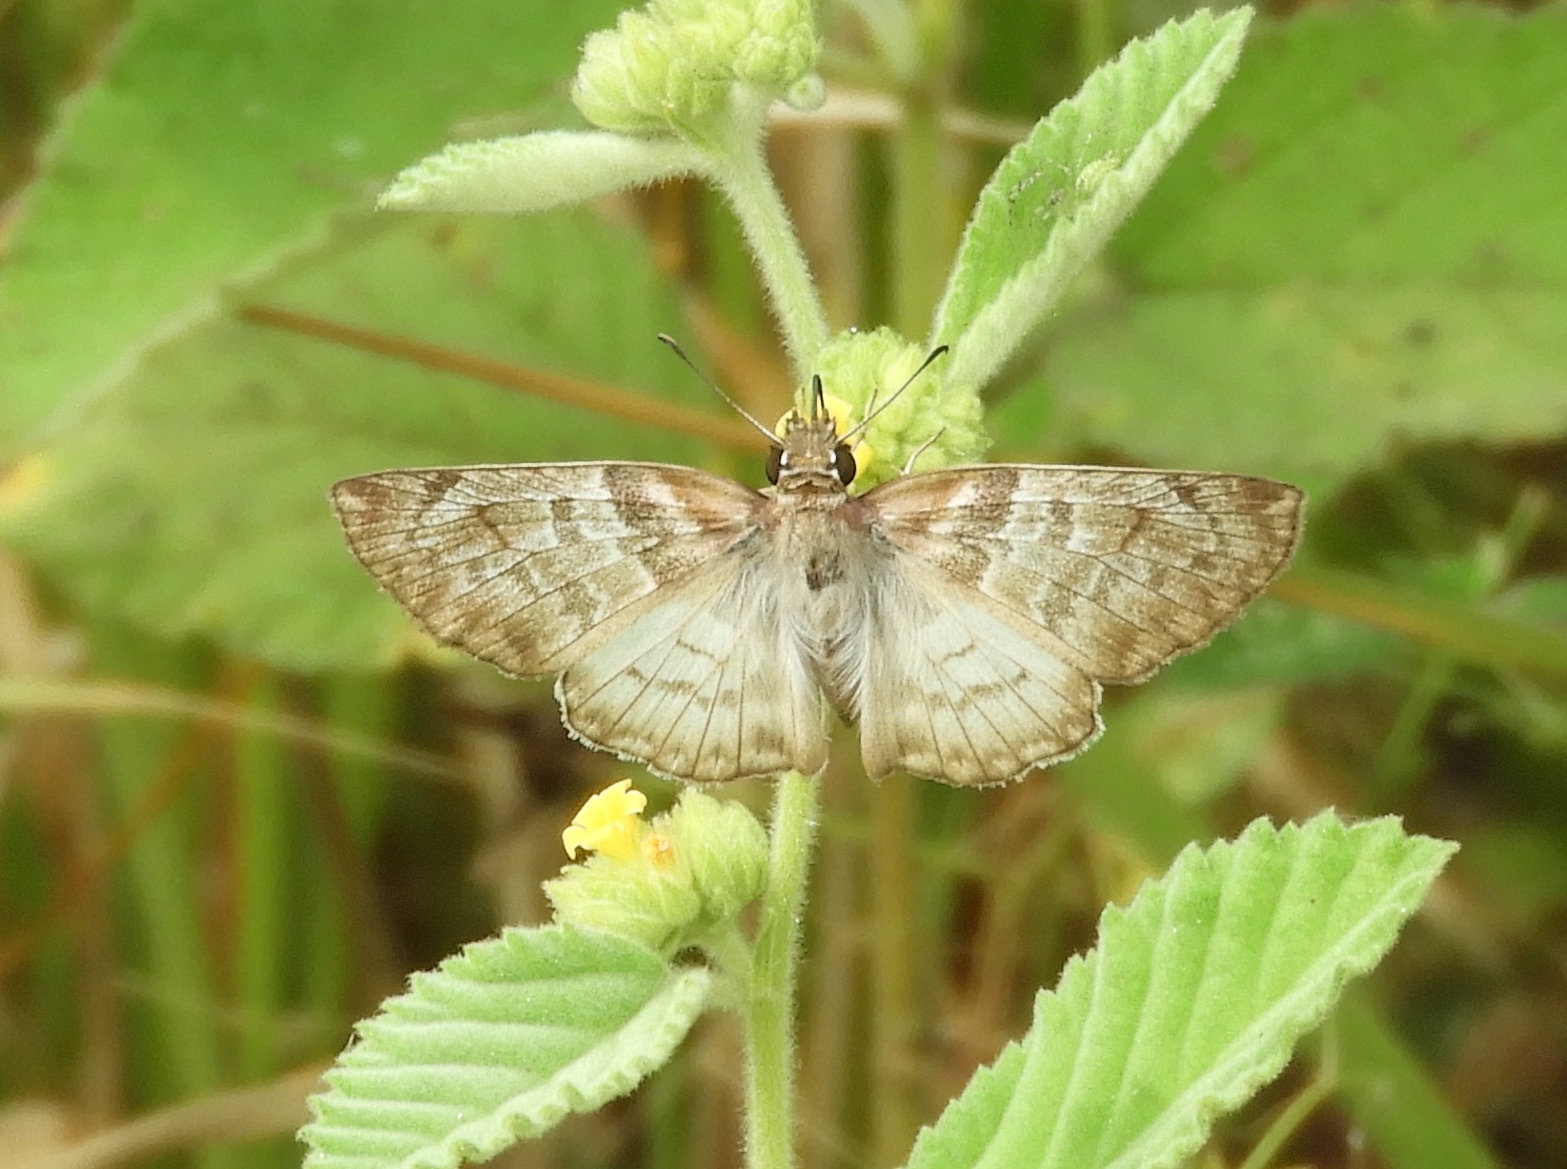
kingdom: Animalia
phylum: Arthropoda
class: Insecta
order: Lepidoptera
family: Hesperiidae
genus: Mylon
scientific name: Mylon pelopidas
